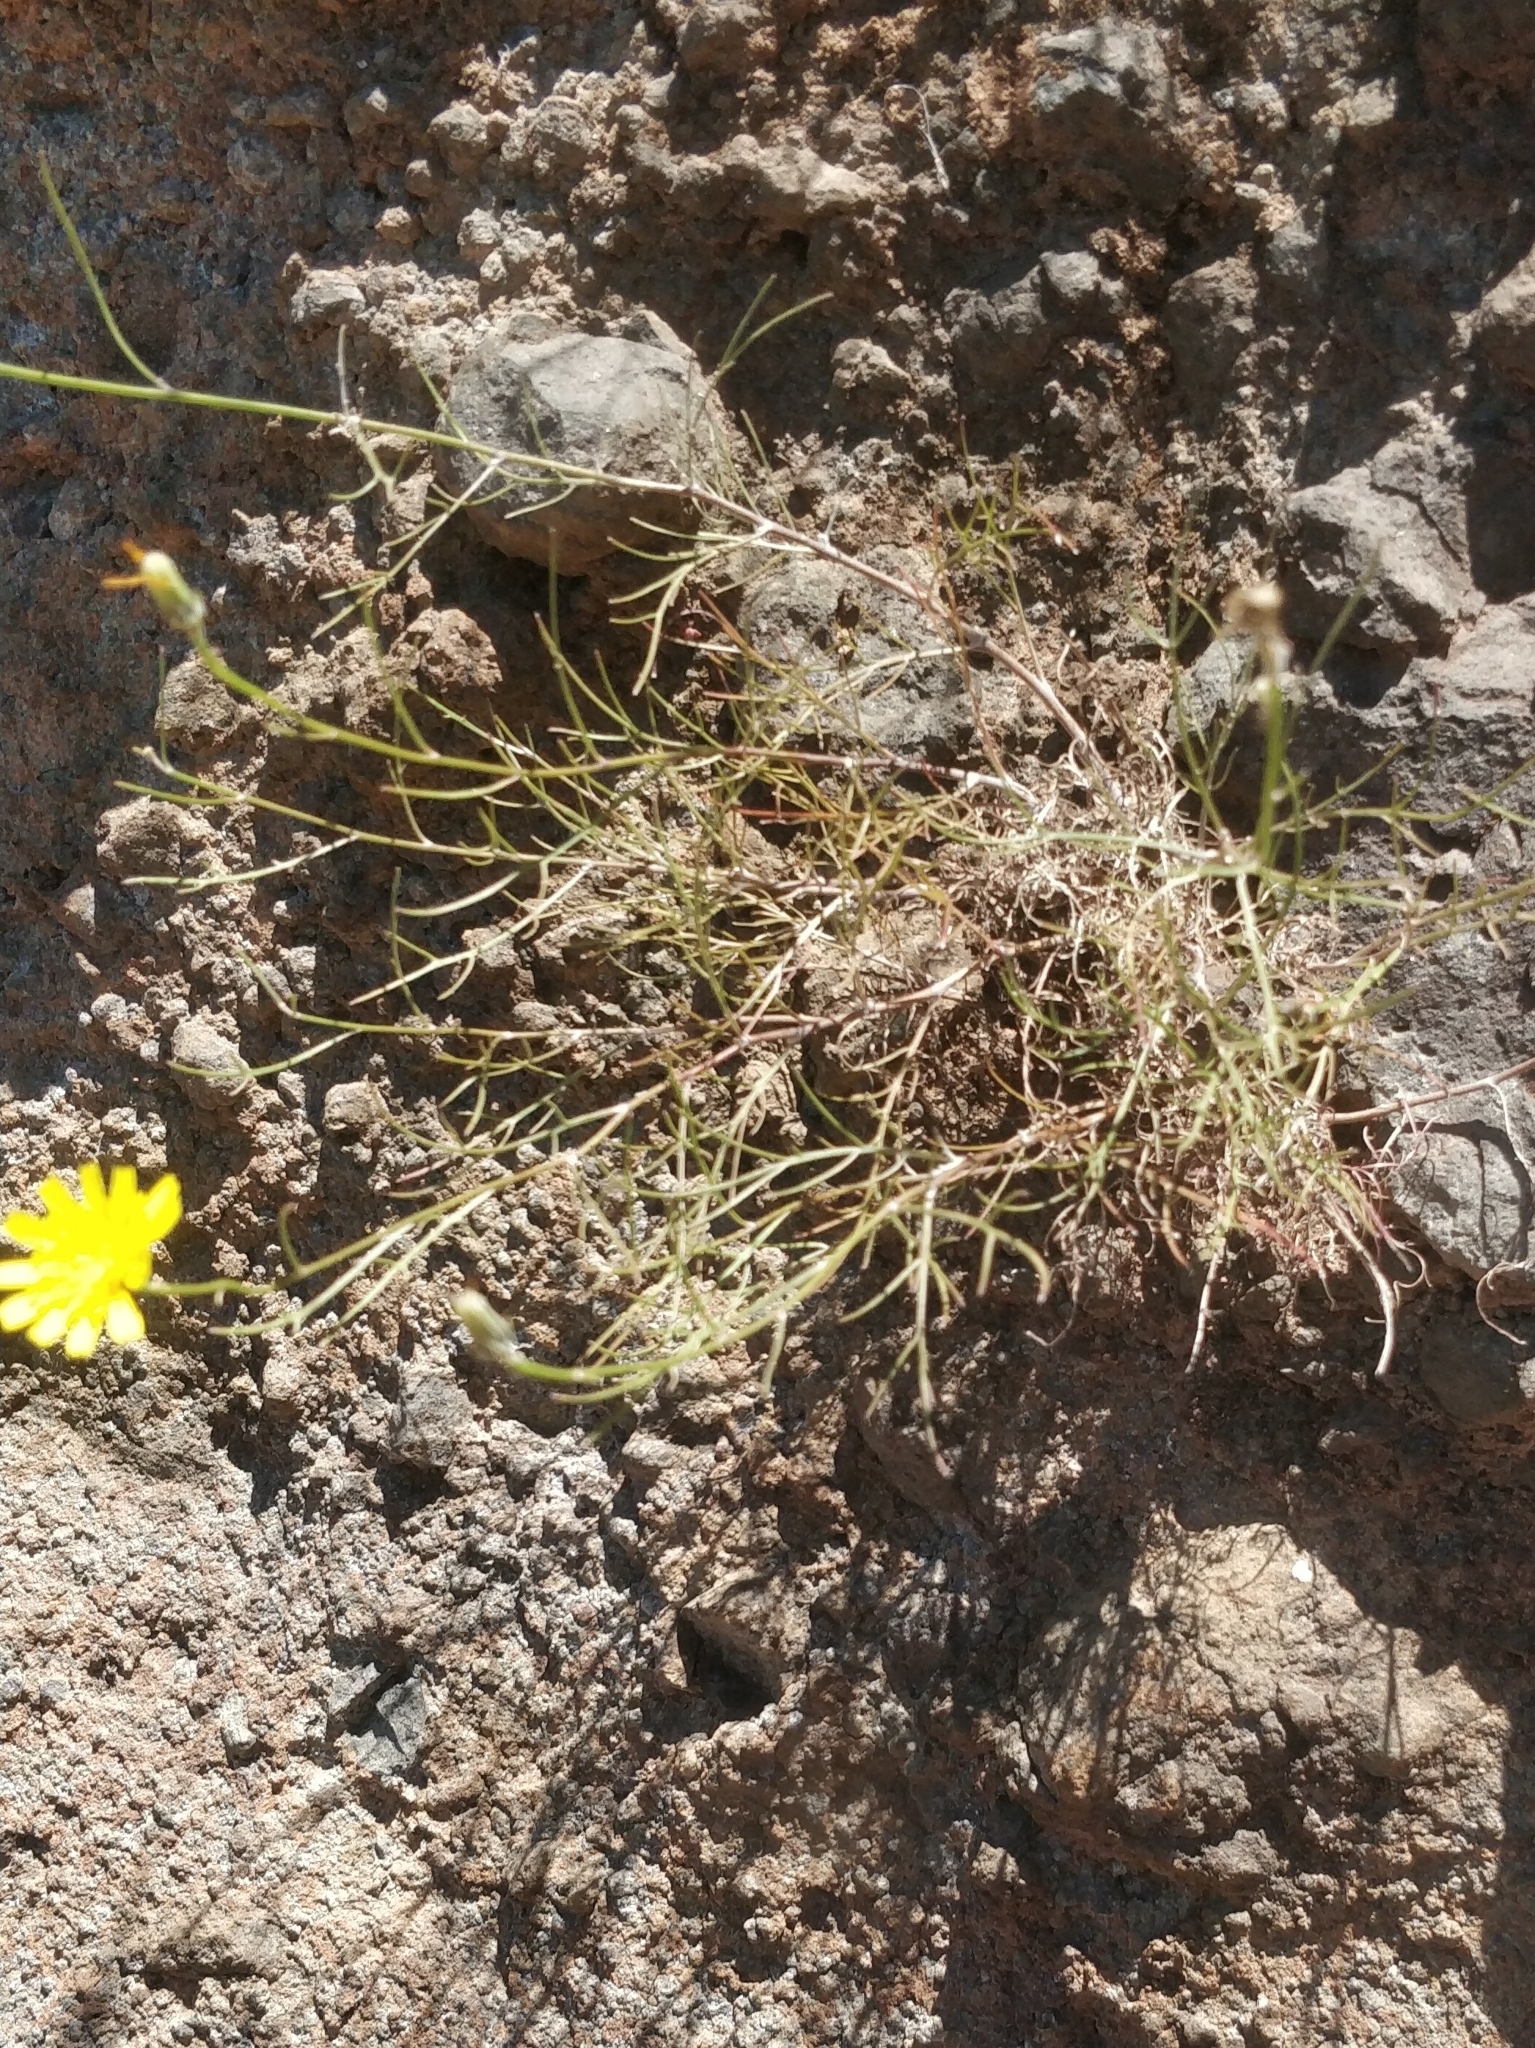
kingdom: Plantae
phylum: Tracheophyta
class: Magnoliopsida
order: Asterales
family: Asteraceae
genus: Tolpis
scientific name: Tolpis succulenta
